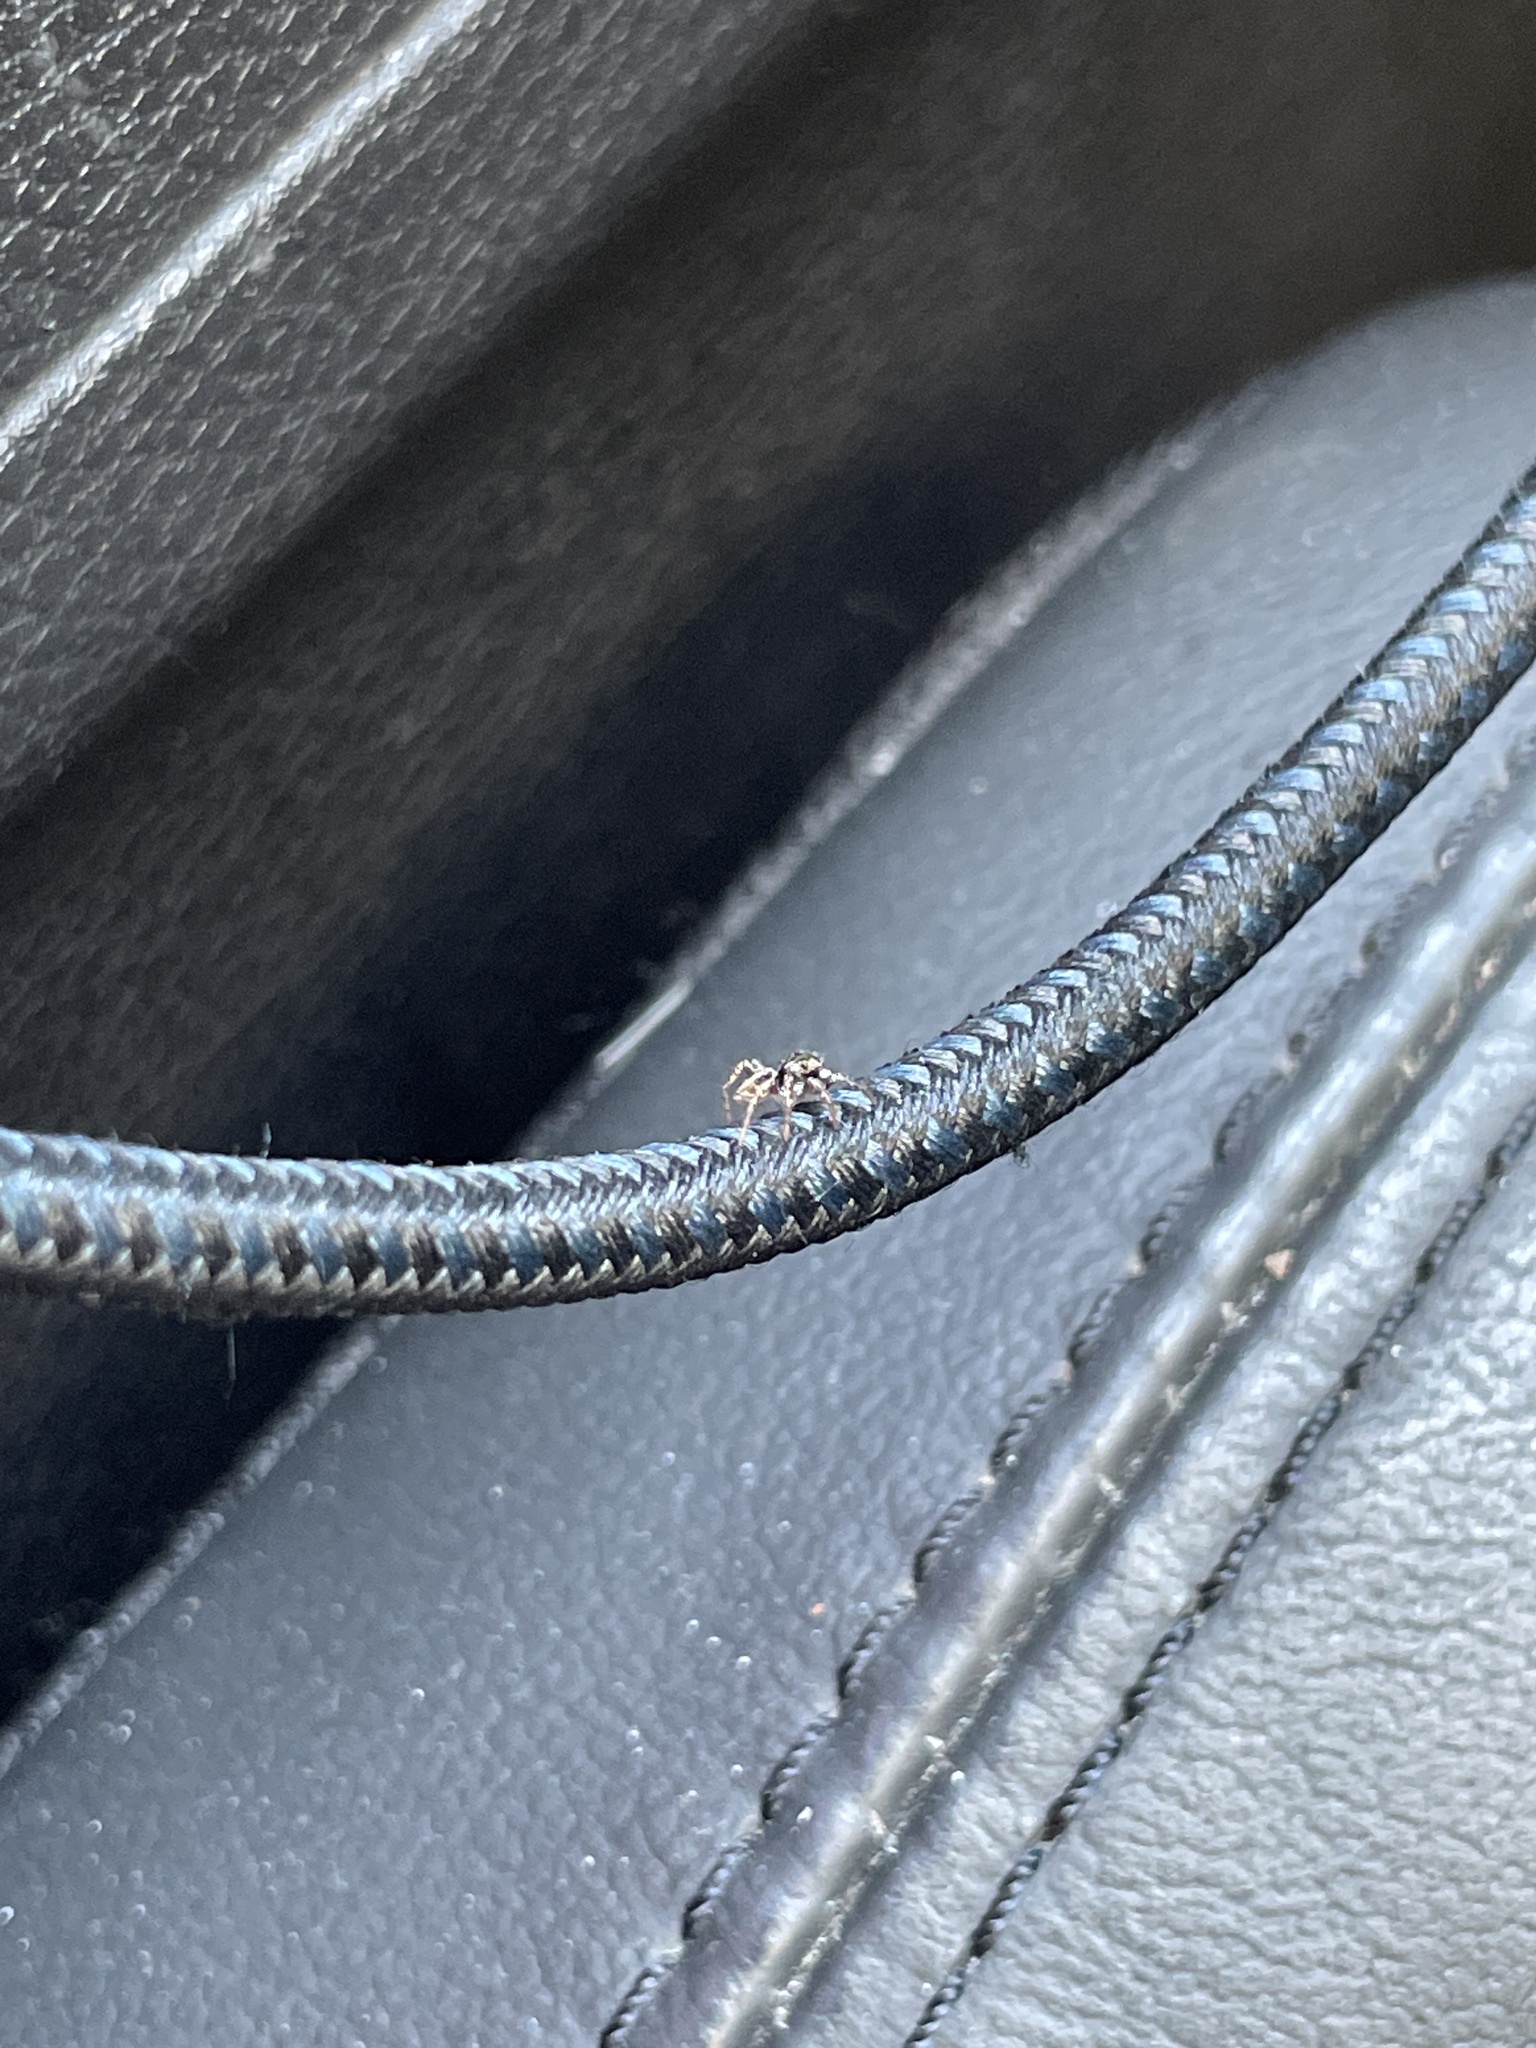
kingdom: Animalia
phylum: Arthropoda
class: Arachnida
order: Araneae
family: Salticidae
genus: Anasaitis
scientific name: Anasaitis canosa
